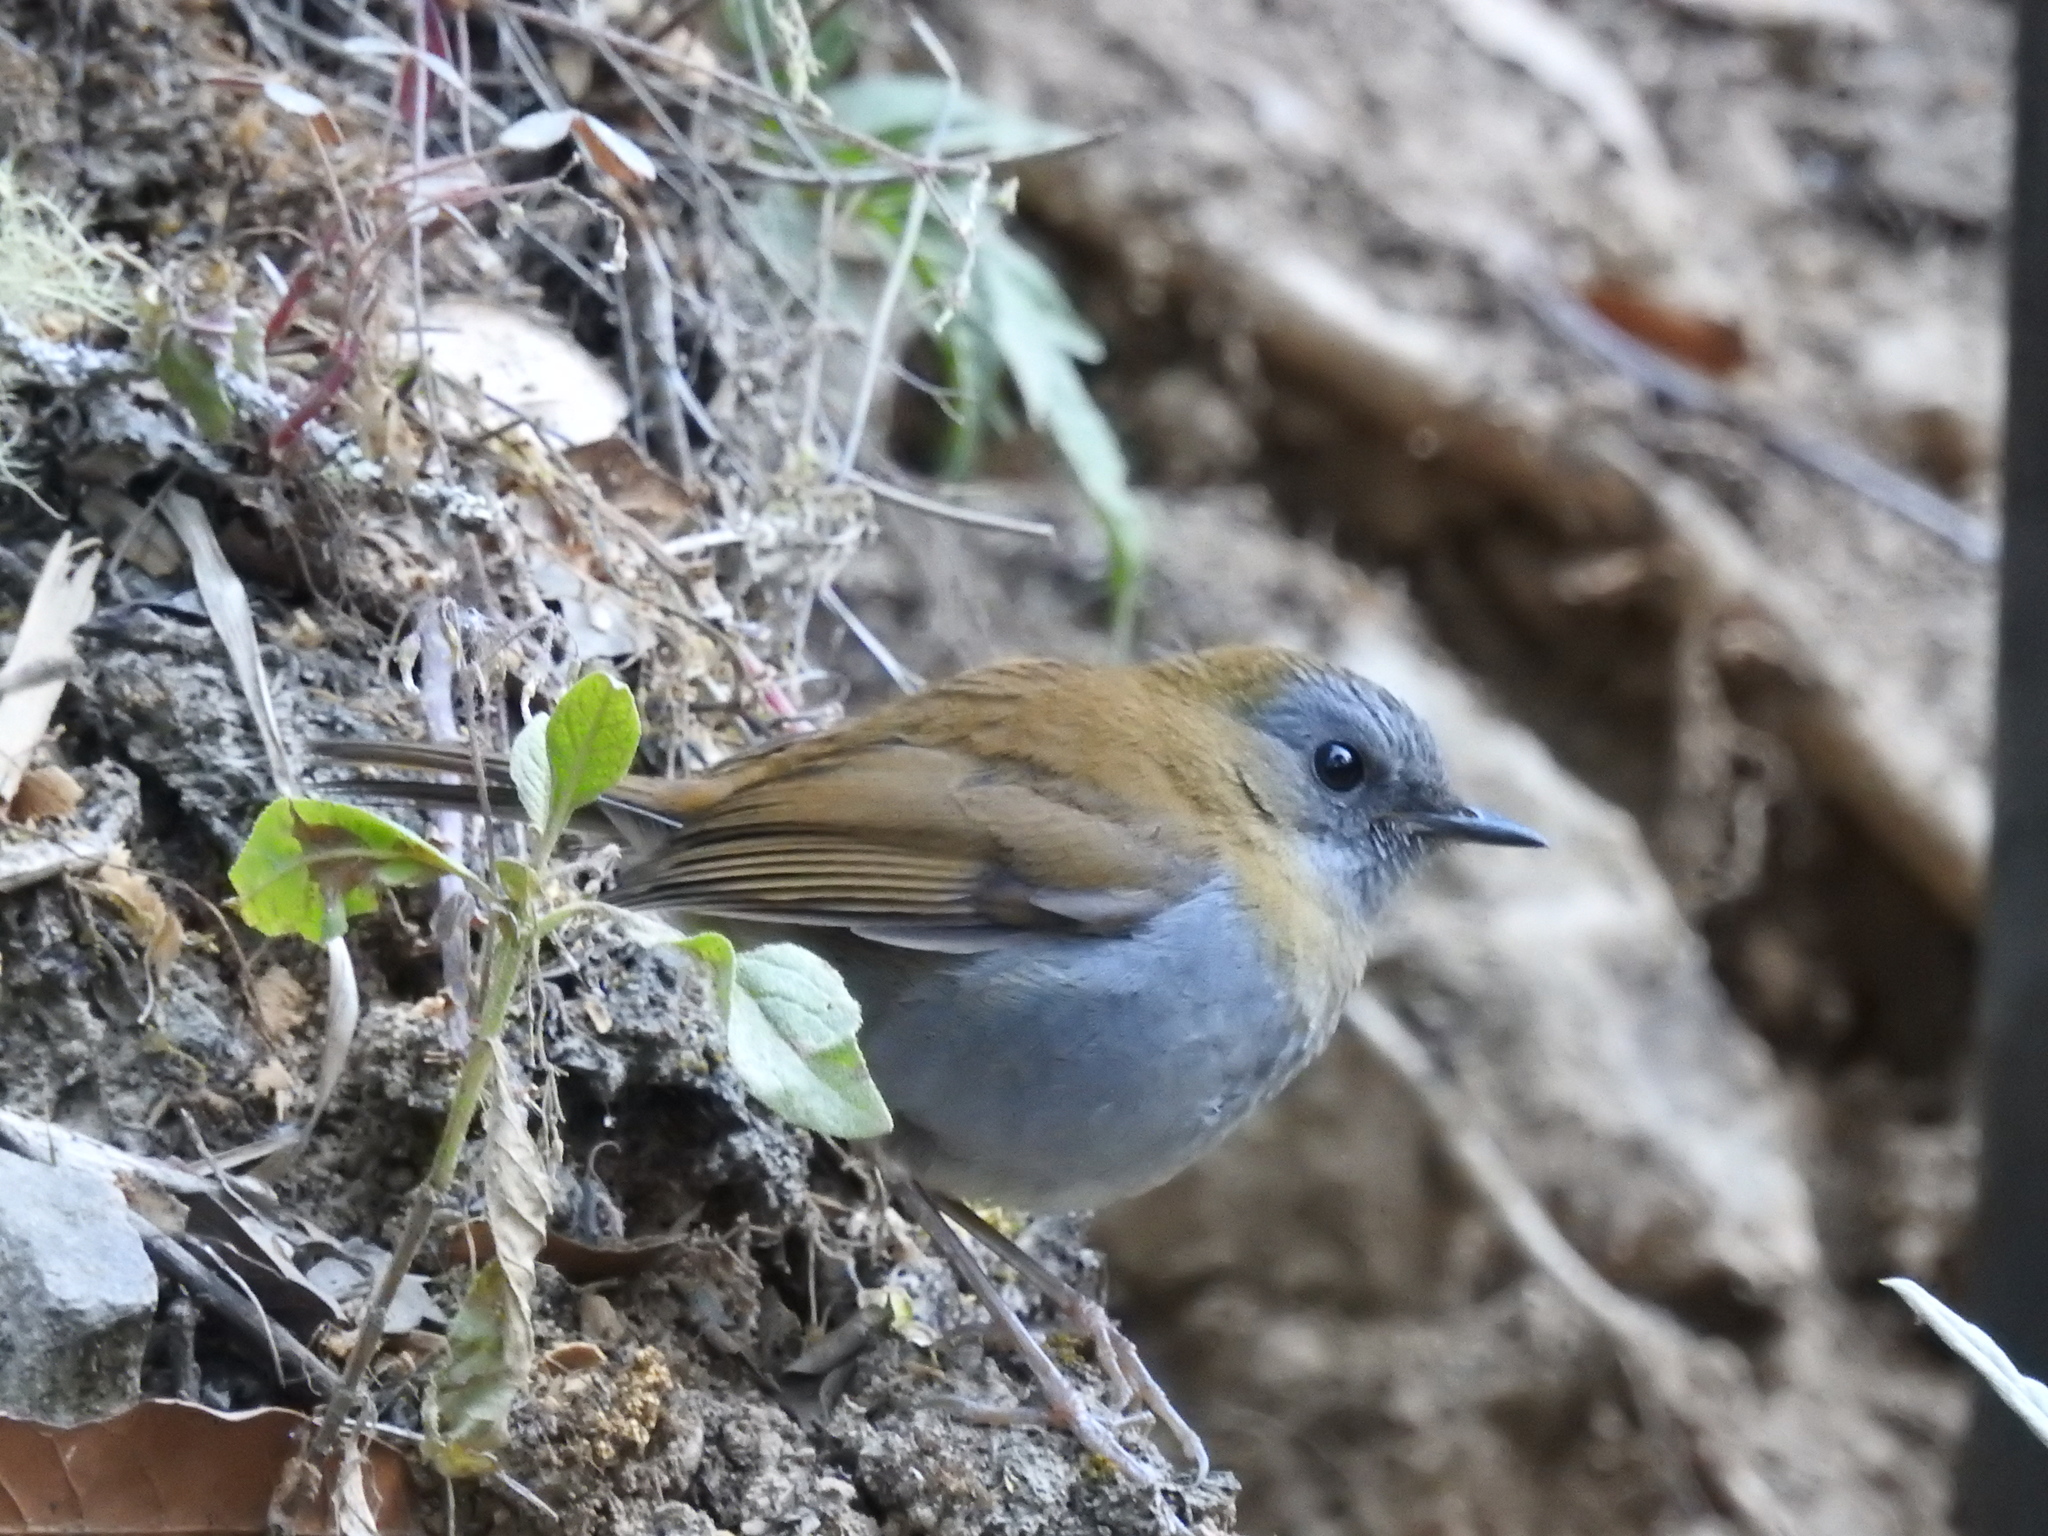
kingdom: Animalia
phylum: Chordata
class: Aves
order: Passeriformes
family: Turdidae
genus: Catharus
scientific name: Catharus gracilirostris
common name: Black-billed nightingale-thrush
